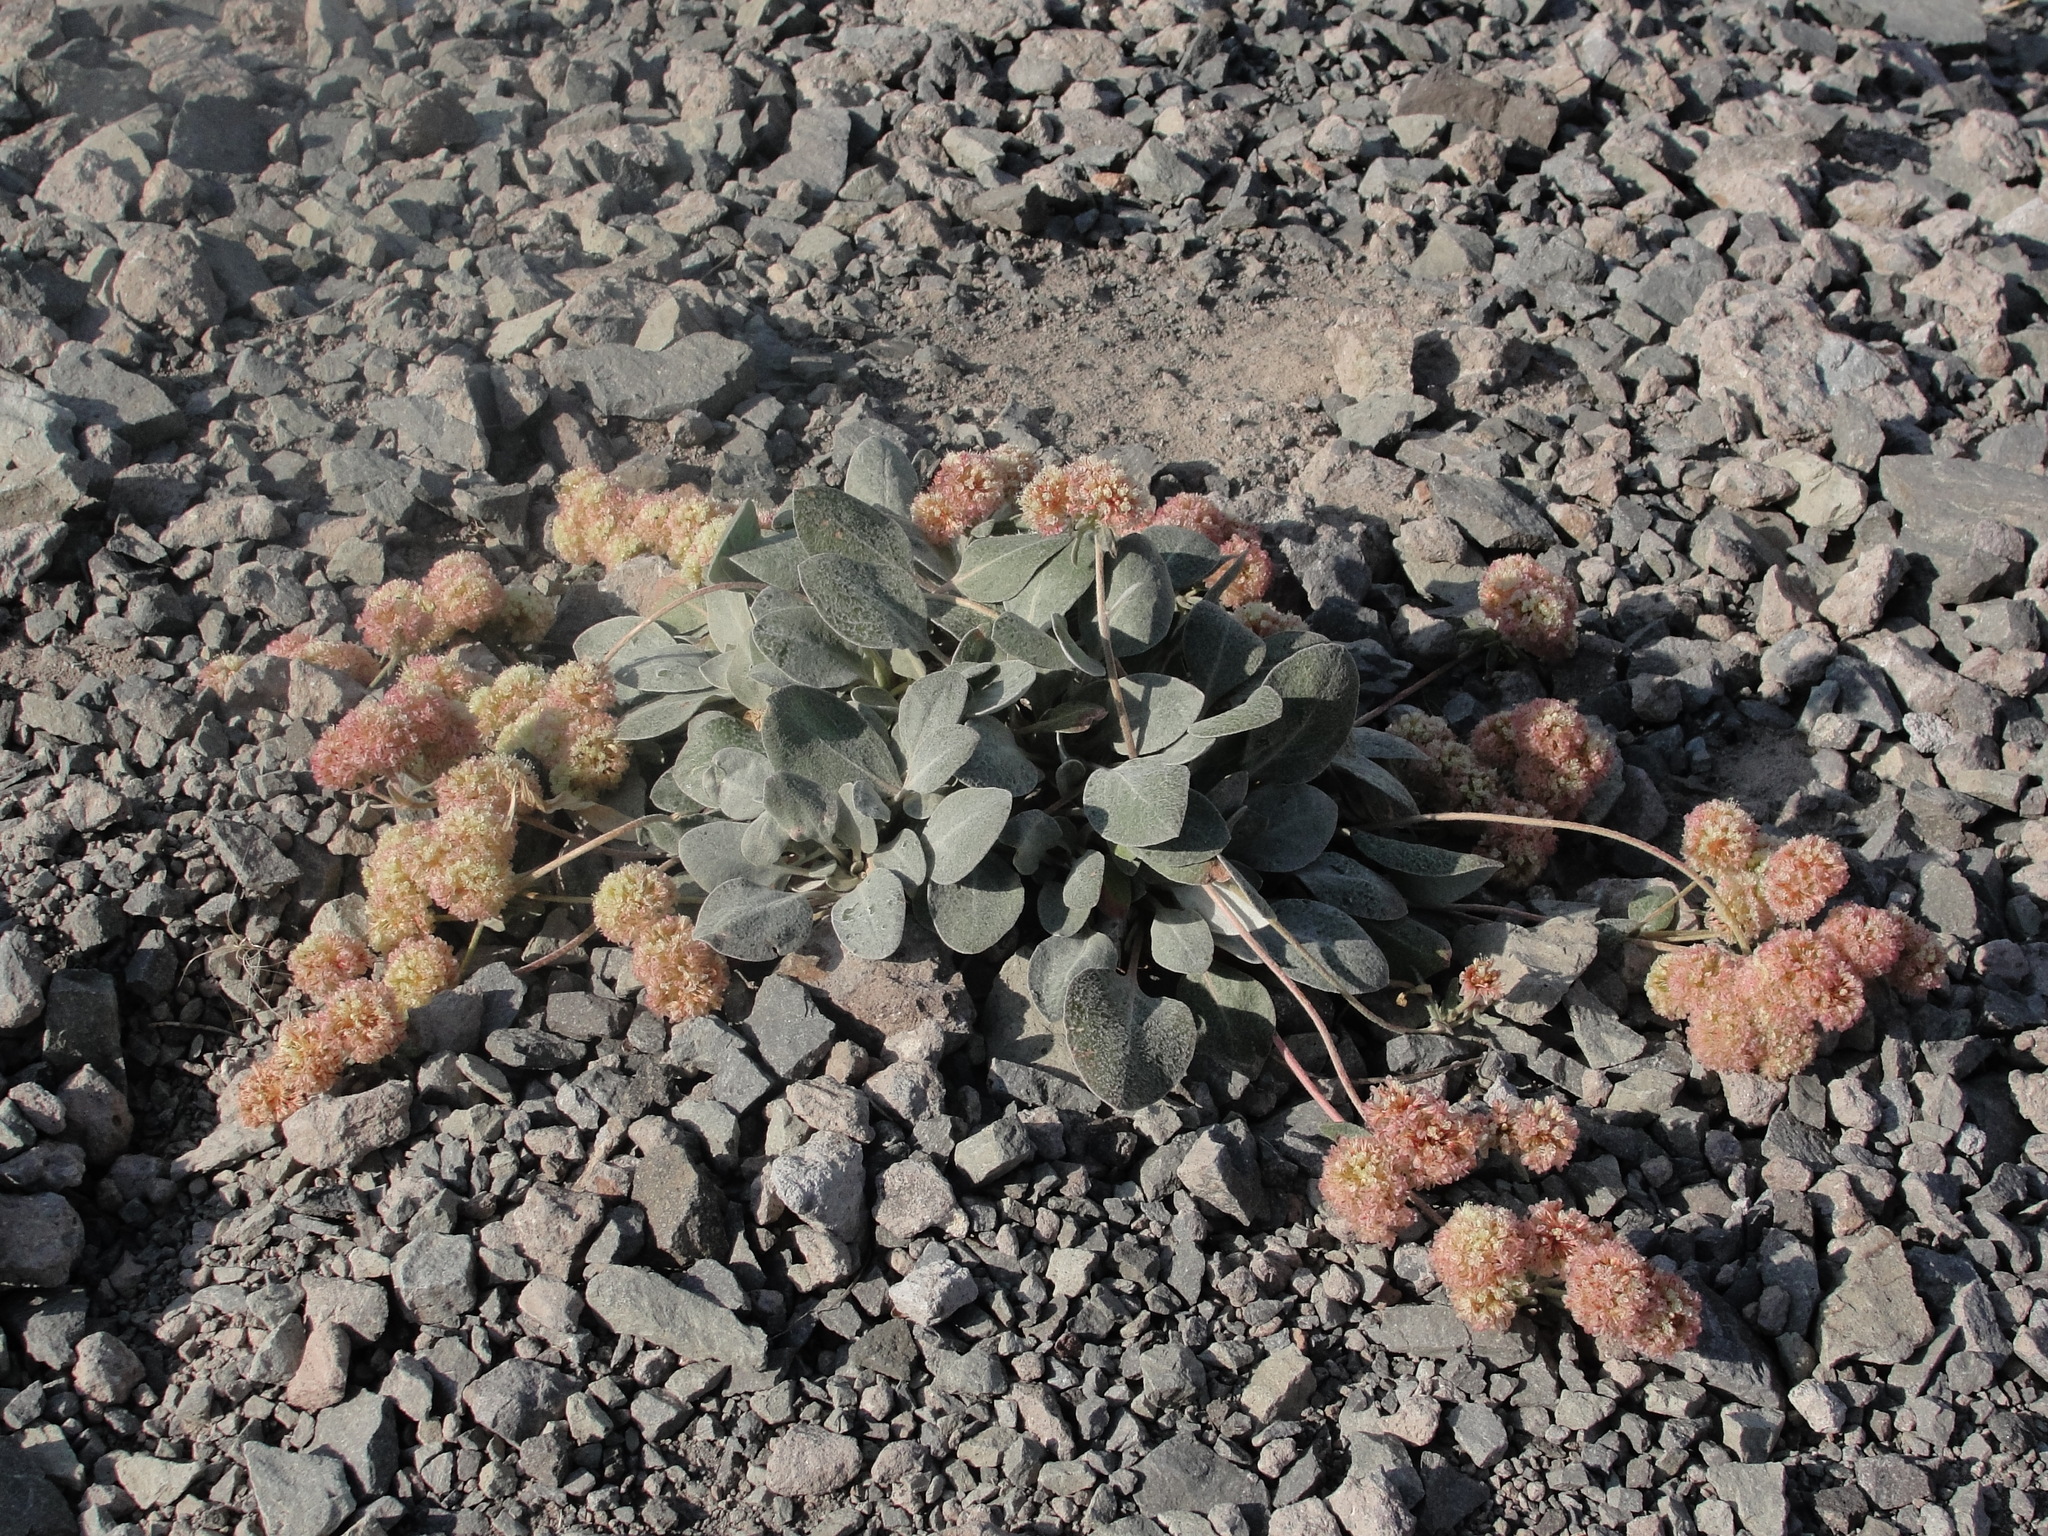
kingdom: Plantae
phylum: Tracheophyta
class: Magnoliopsida
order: Caryophyllales
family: Polygonaceae
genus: Eriogonum
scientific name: Eriogonum lobbii
